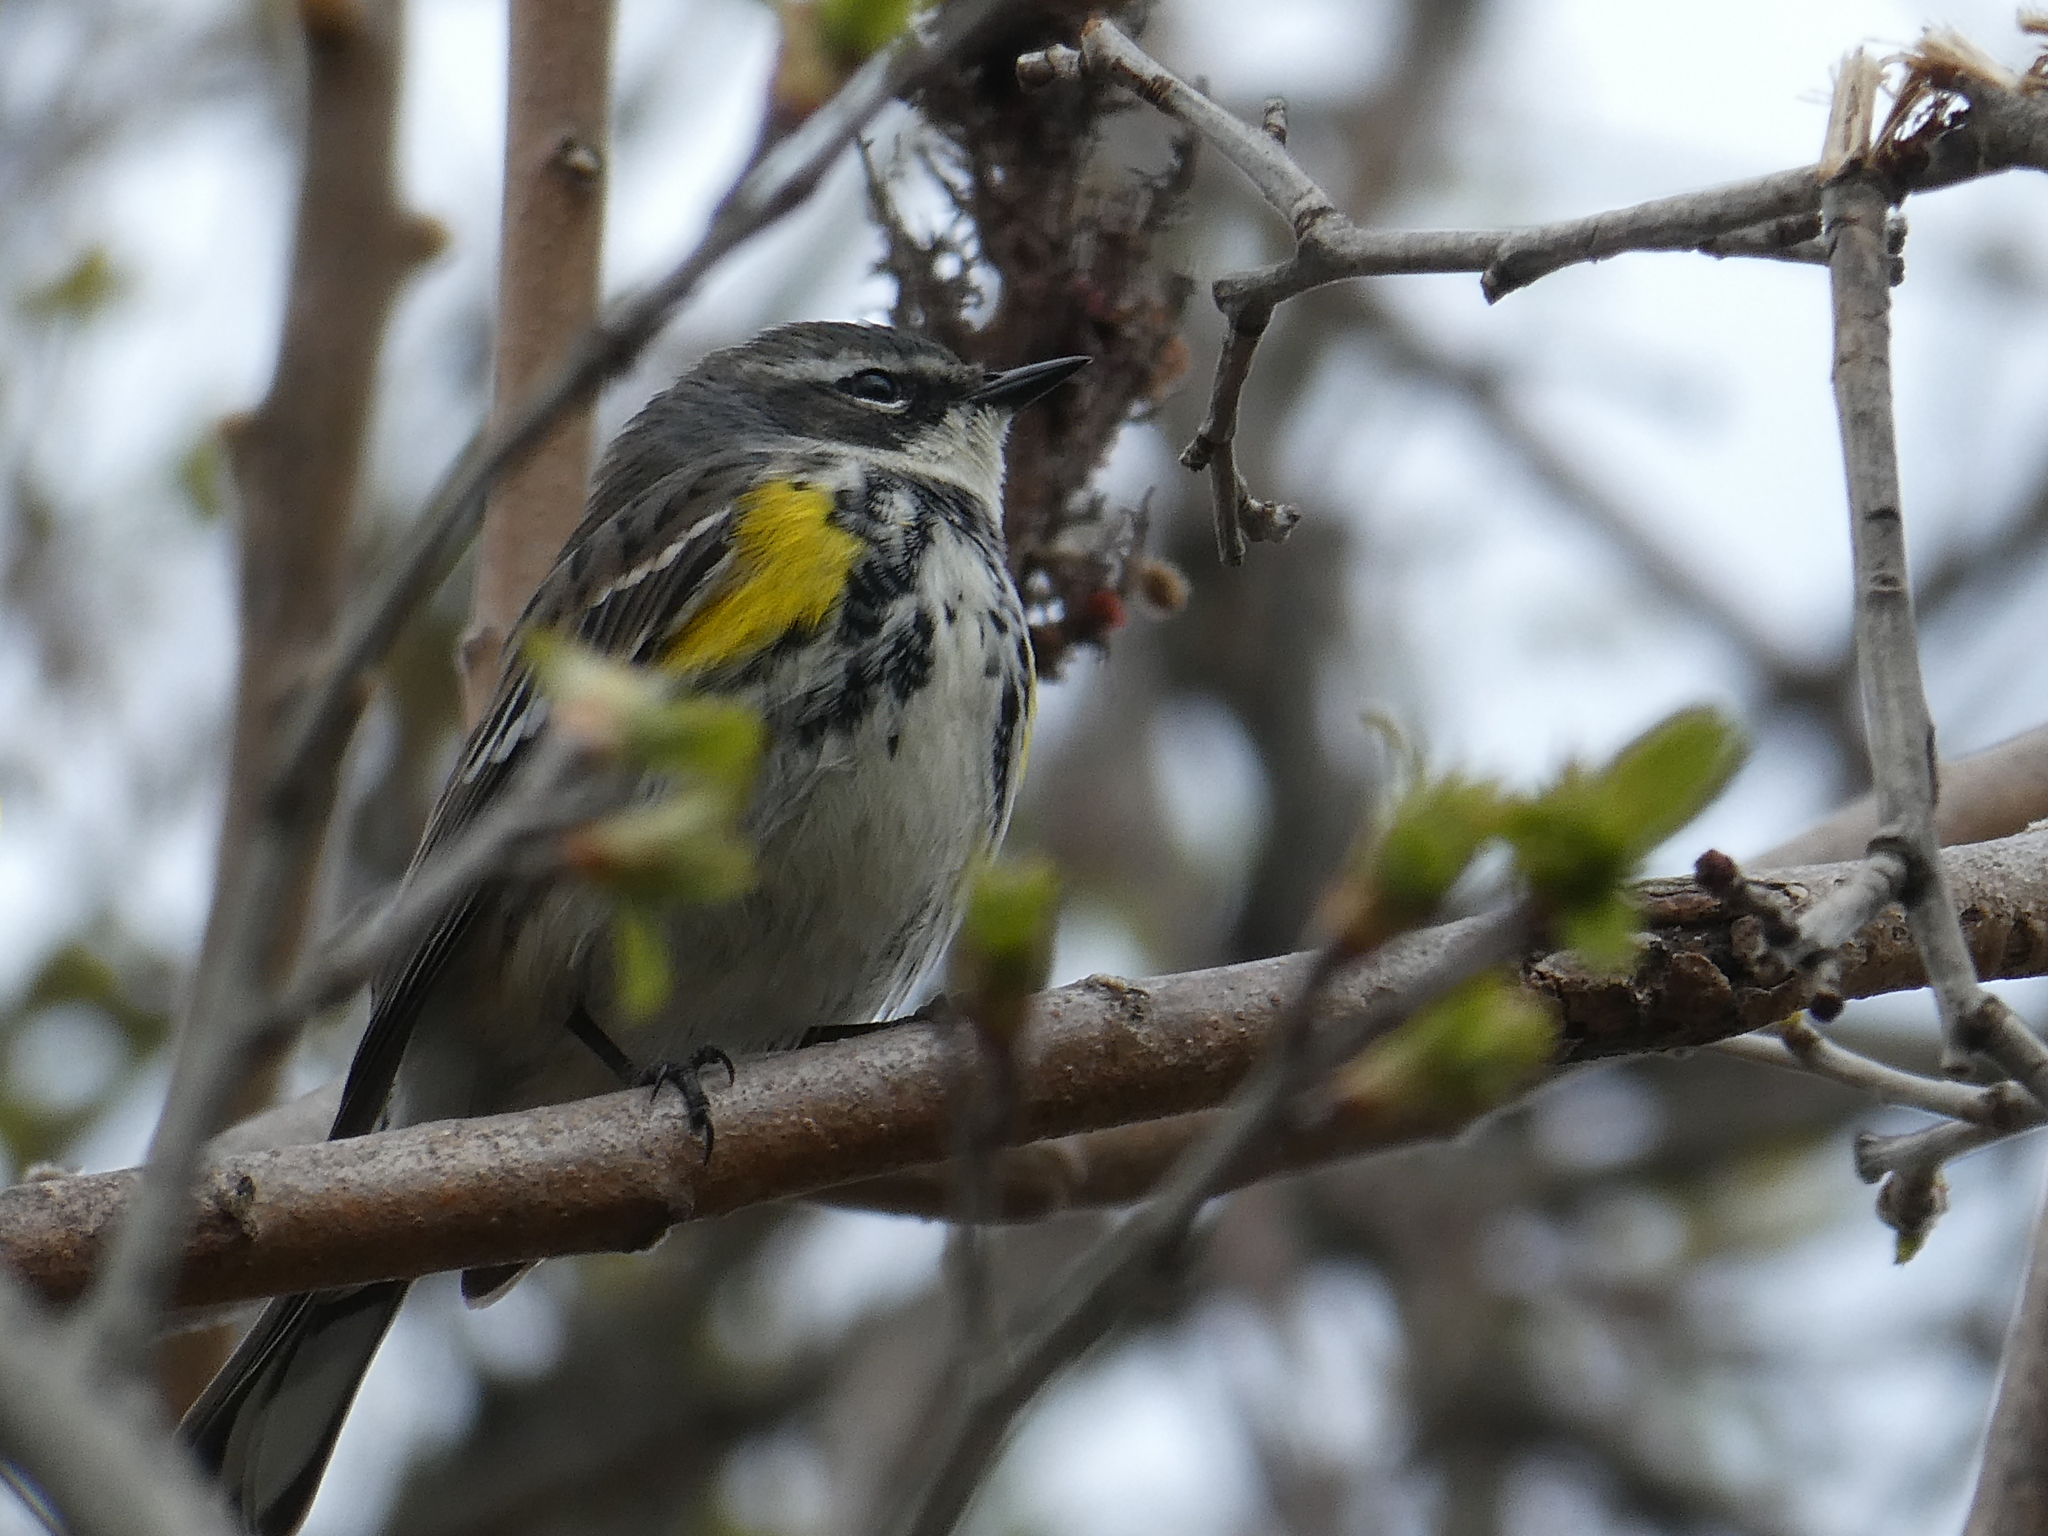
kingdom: Animalia
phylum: Chordata
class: Aves
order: Passeriformes
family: Parulidae
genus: Setophaga
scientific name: Setophaga coronata
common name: Myrtle warbler
